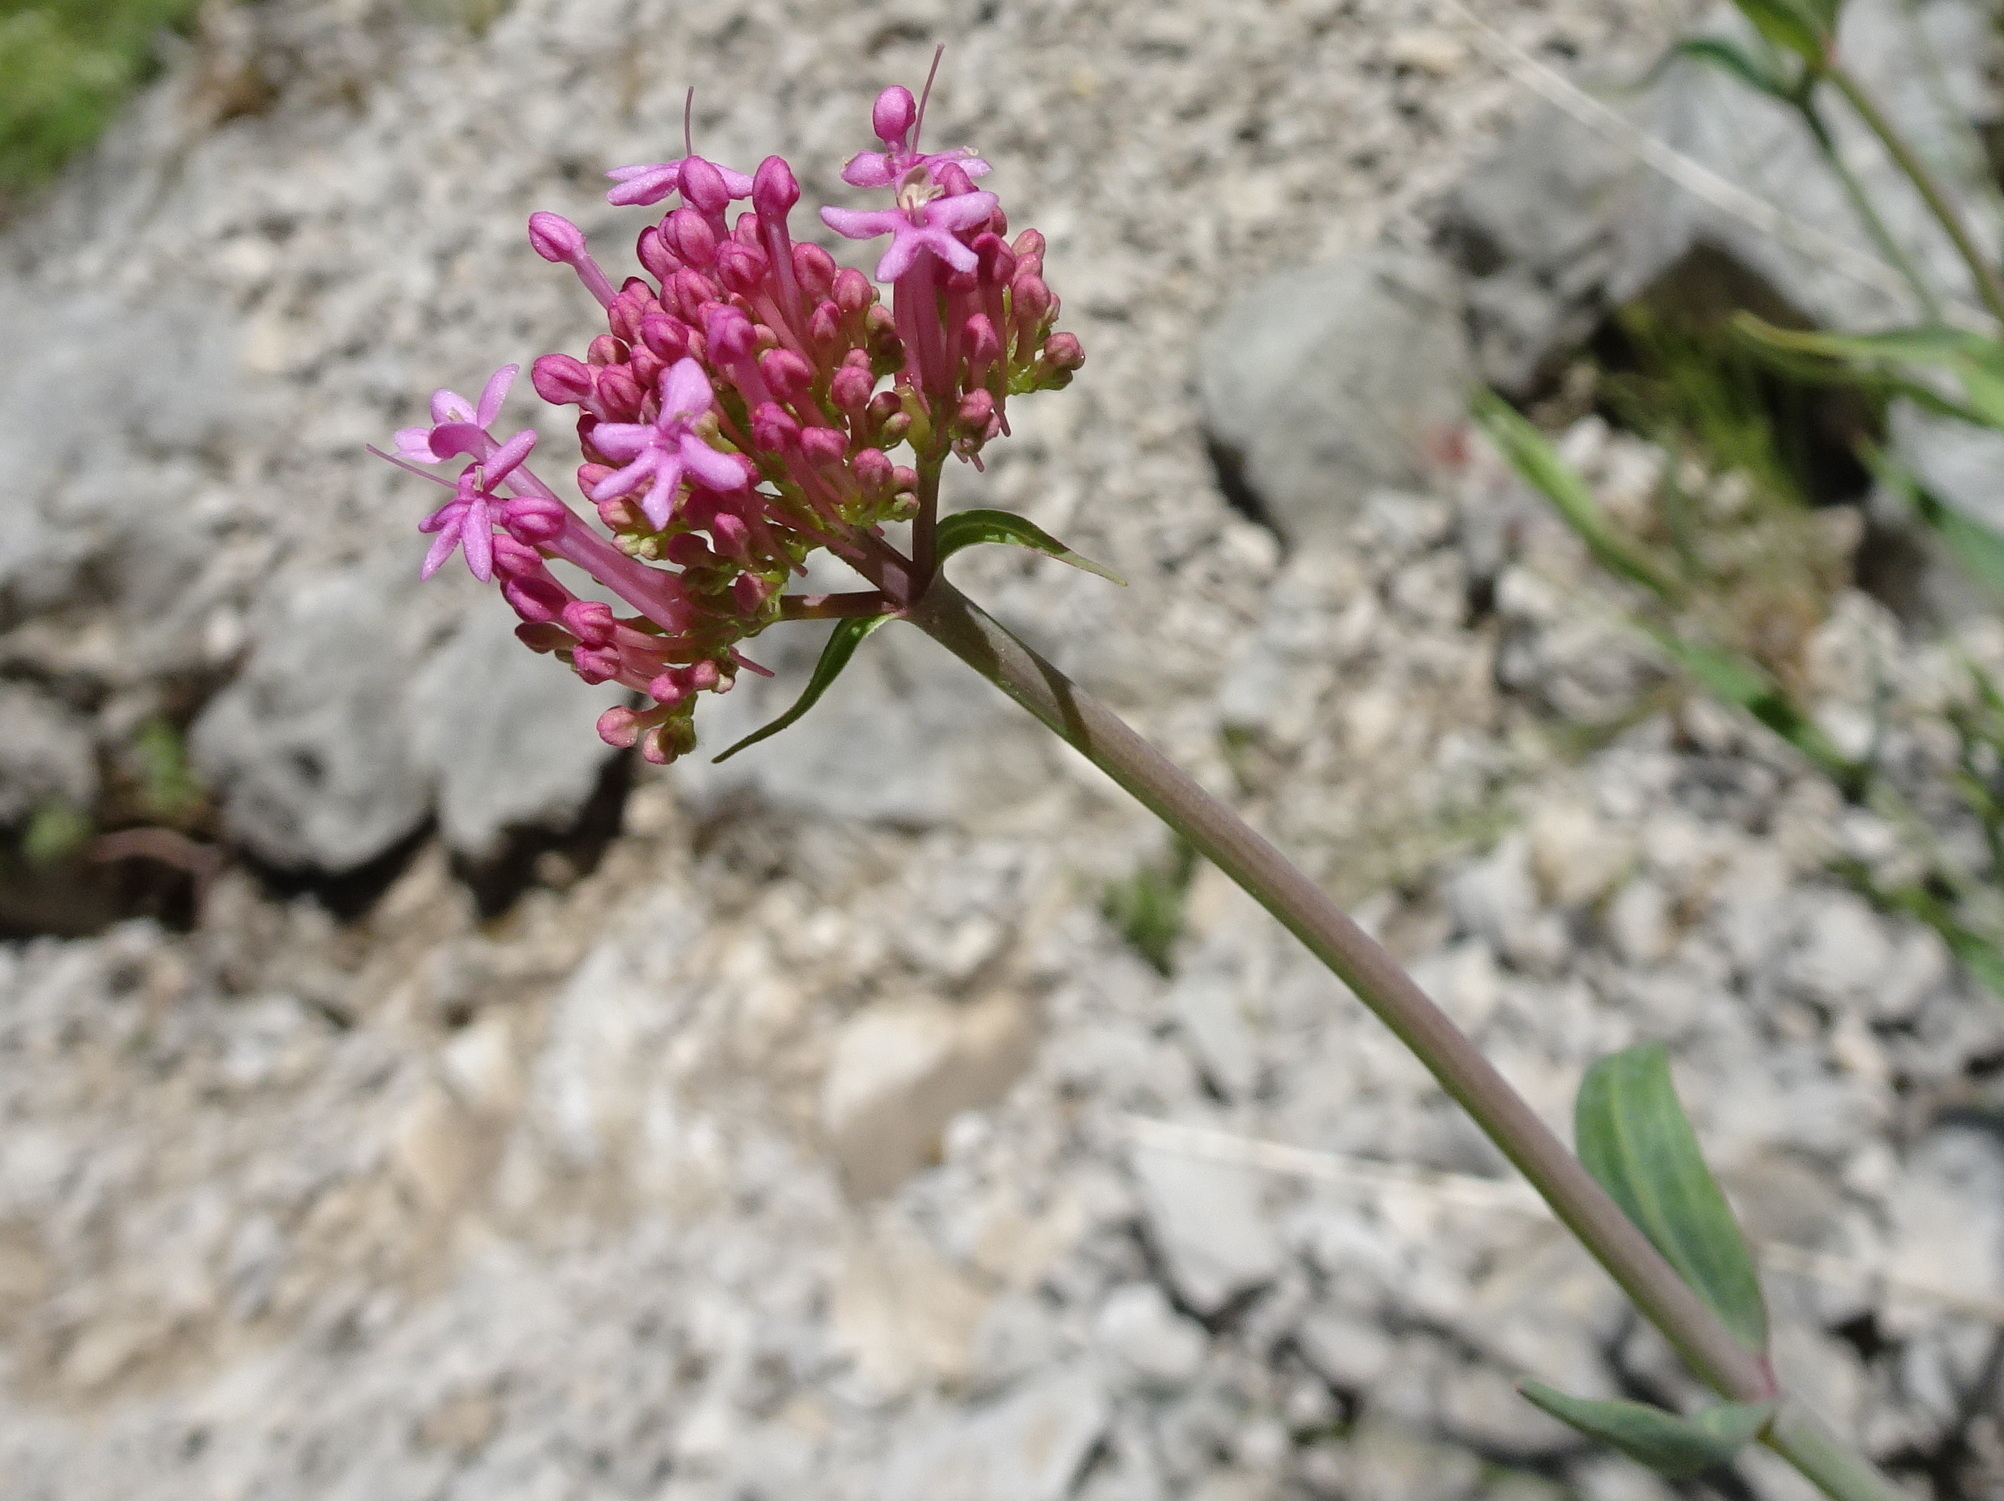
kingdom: Plantae
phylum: Tracheophyta
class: Magnoliopsida
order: Dipsacales
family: Caprifoliaceae
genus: Centranthus
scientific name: Centranthus lecoqii
